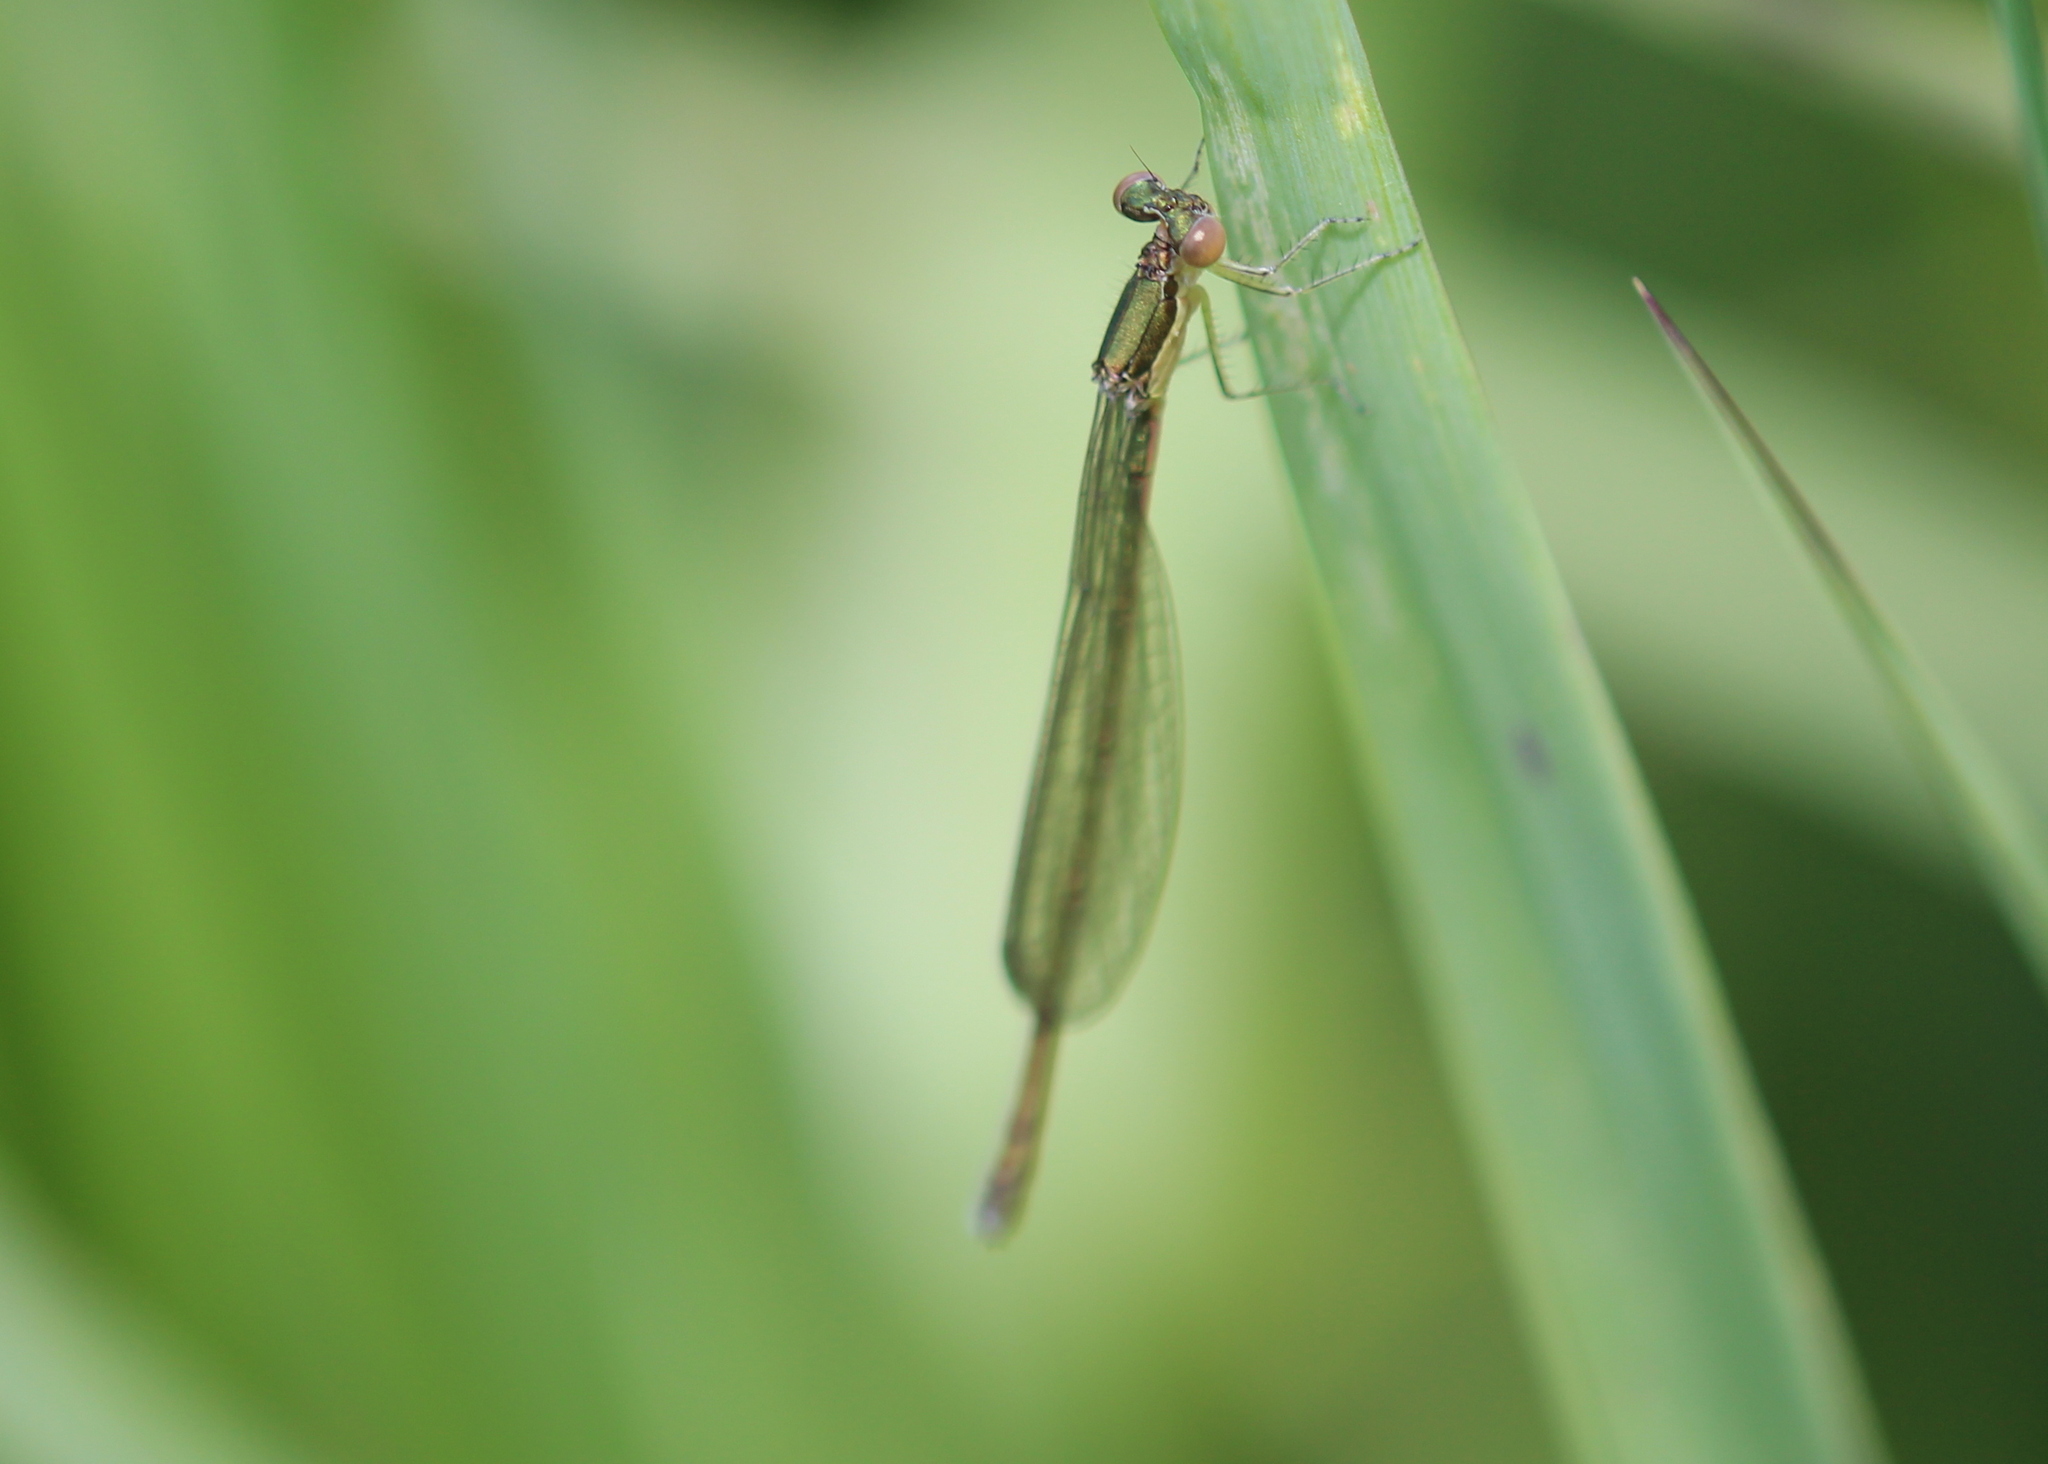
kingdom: Animalia
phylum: Arthropoda
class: Insecta
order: Odonata
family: Coenagrionidae
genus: Nehalennia
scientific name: Nehalennia irene
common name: Sedge sprite
